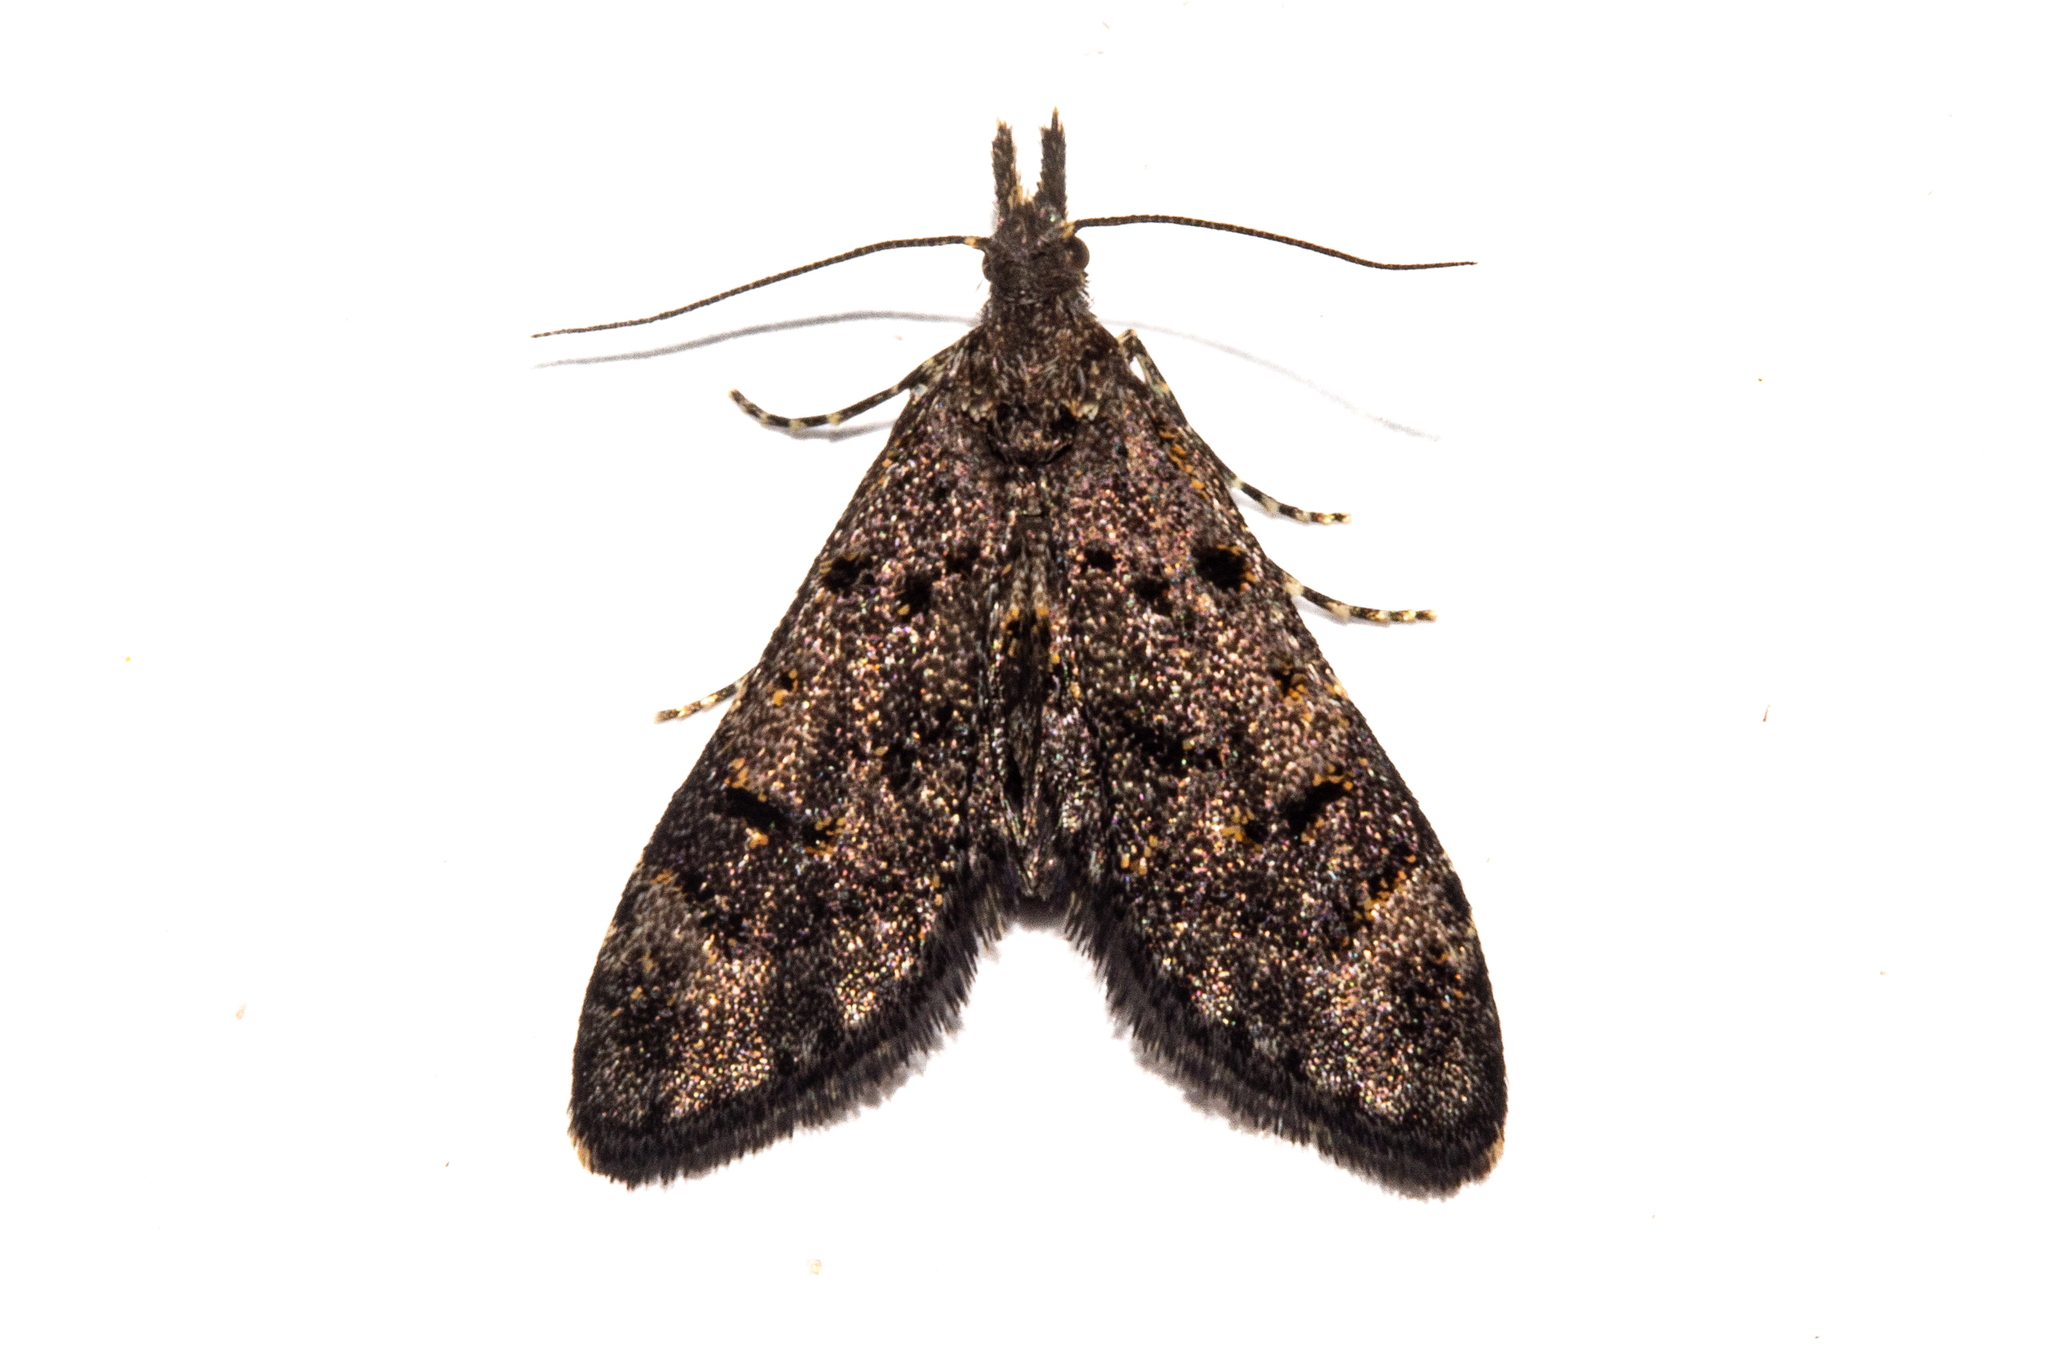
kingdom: Animalia
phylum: Arthropoda
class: Insecta
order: Lepidoptera
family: Copromorphidae
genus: Isonomeutis
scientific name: Isonomeutis amauropa
